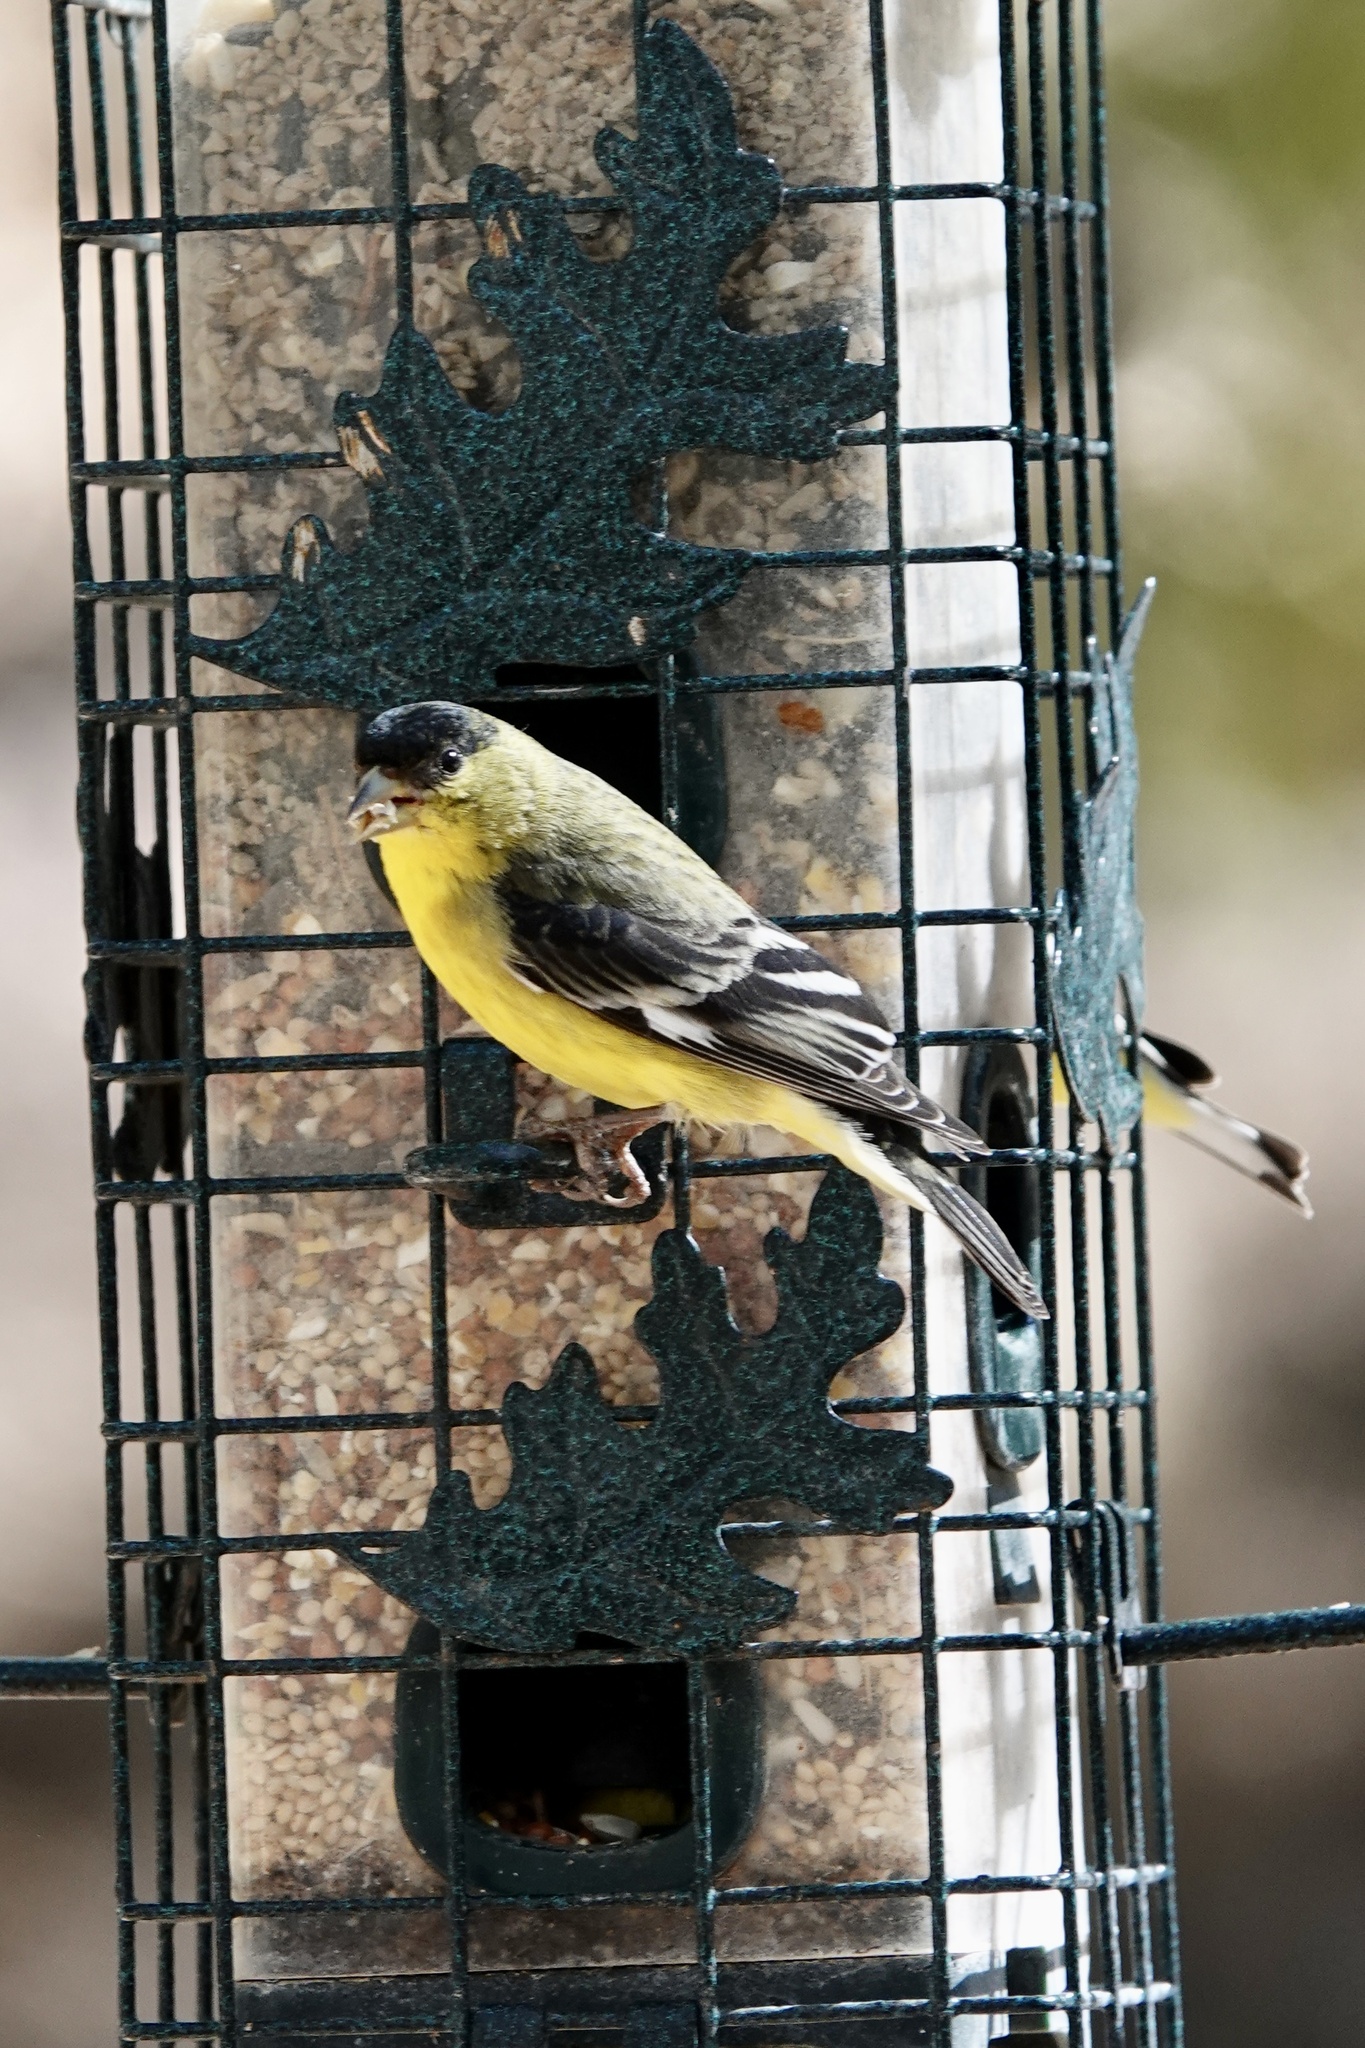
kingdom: Animalia
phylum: Chordata
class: Aves
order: Passeriformes
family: Fringillidae
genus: Spinus
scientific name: Spinus psaltria
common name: Lesser goldfinch
